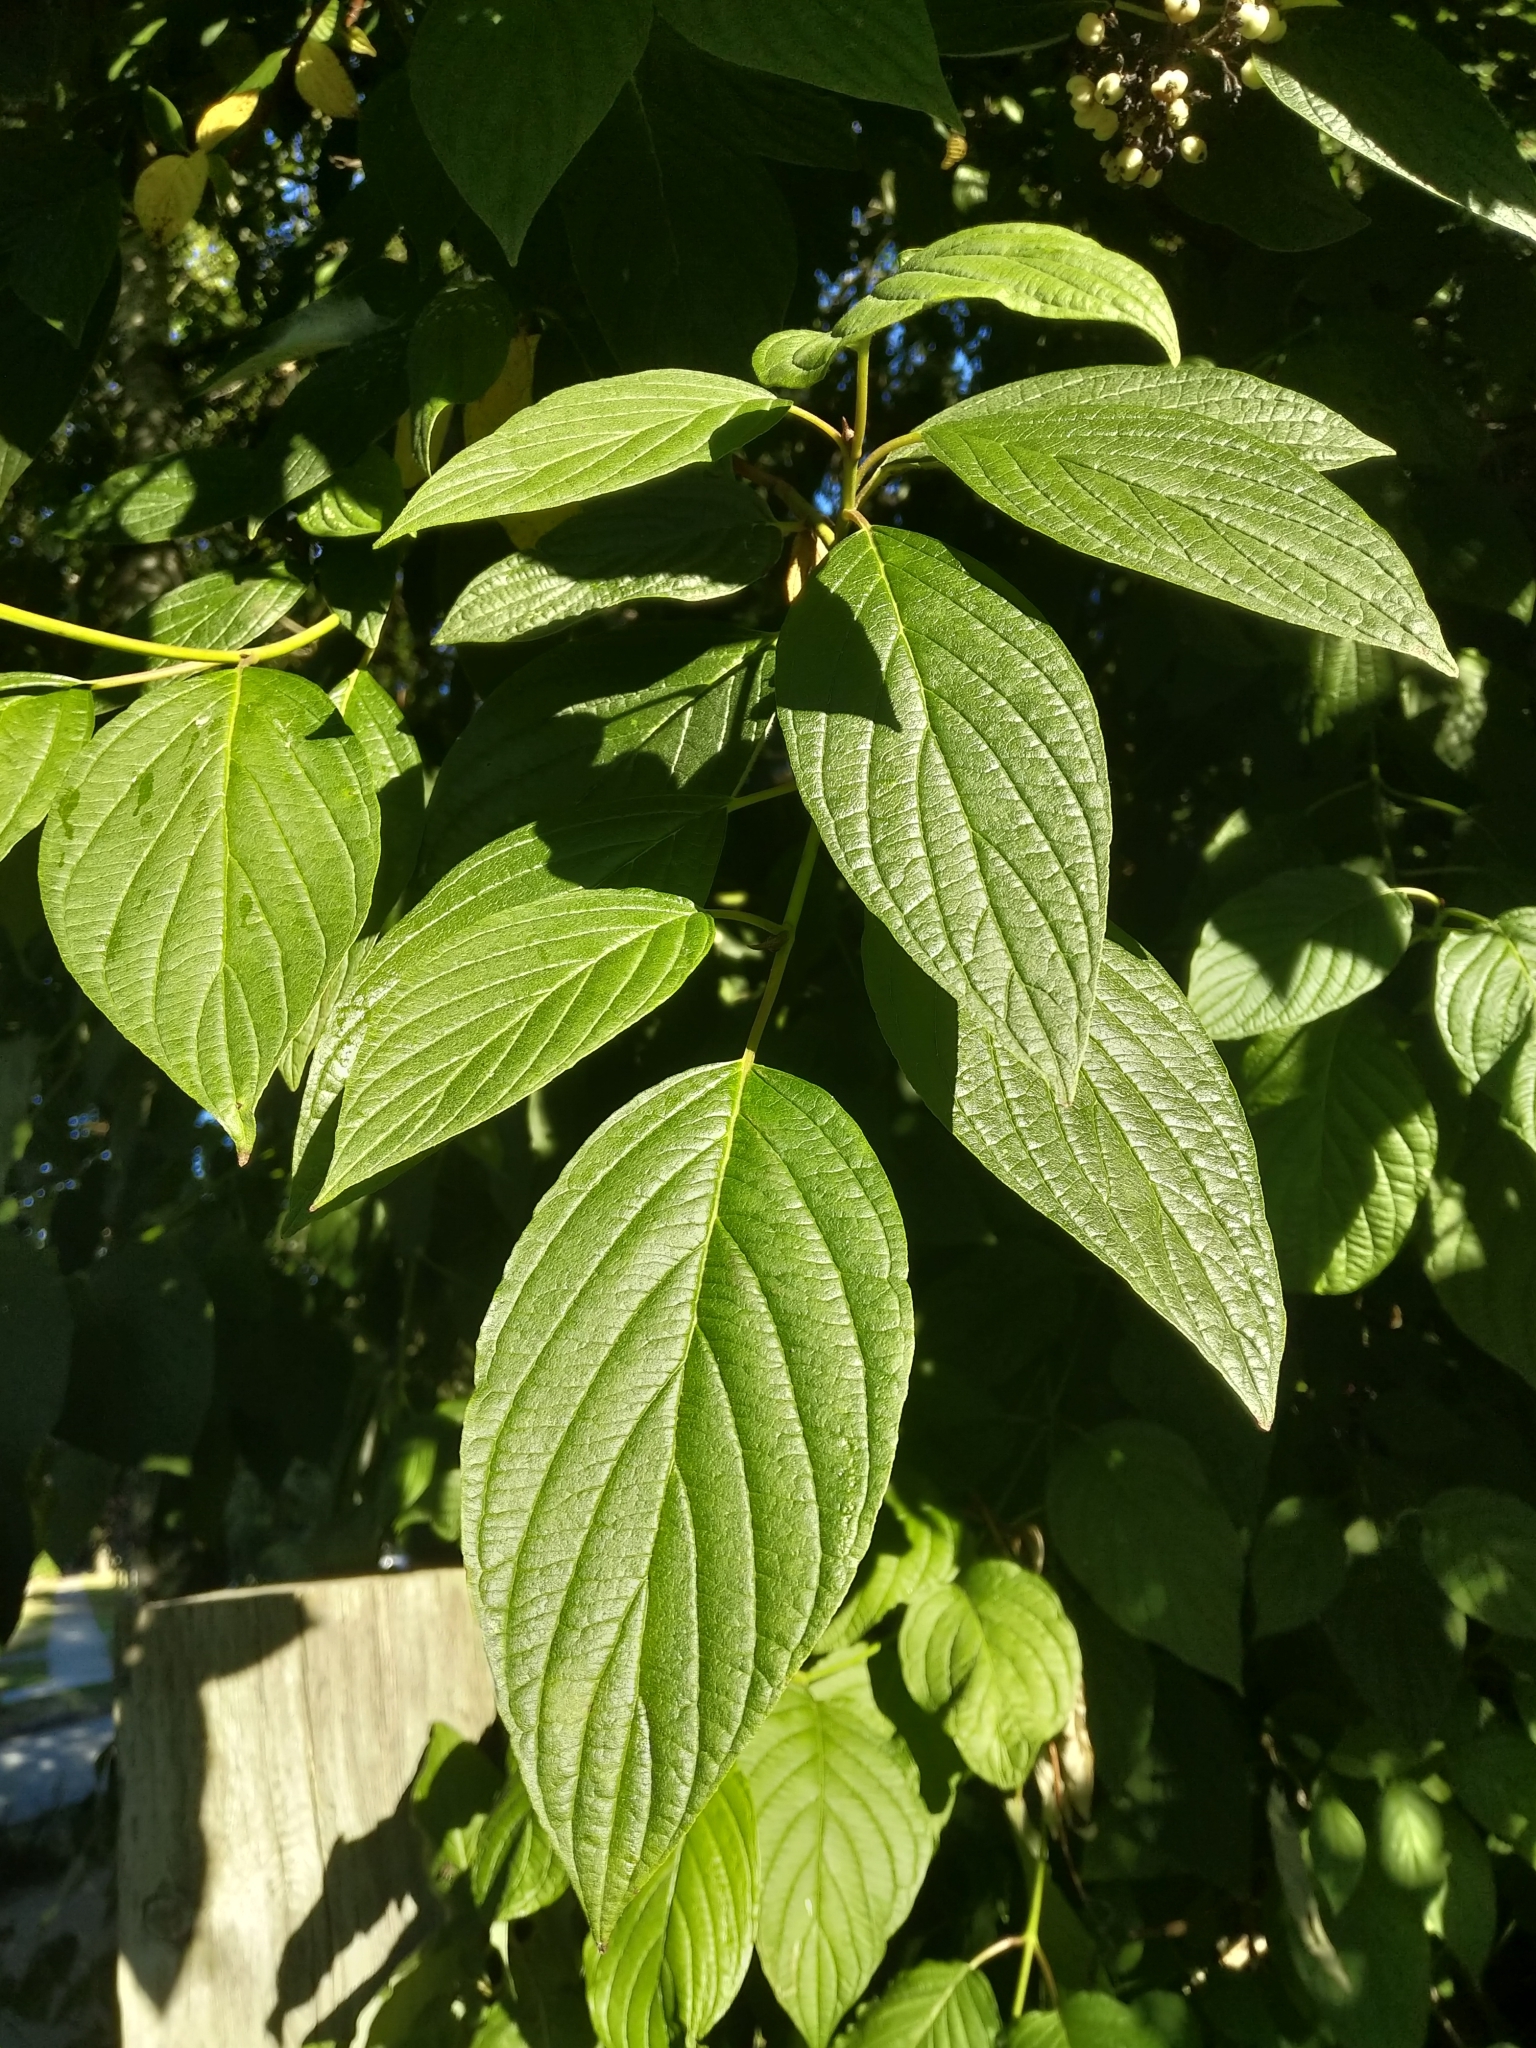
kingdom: Plantae
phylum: Tracheophyta
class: Magnoliopsida
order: Cornales
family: Cornaceae
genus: Cornus
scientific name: Cornus sericea
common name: Red-osier dogwood
